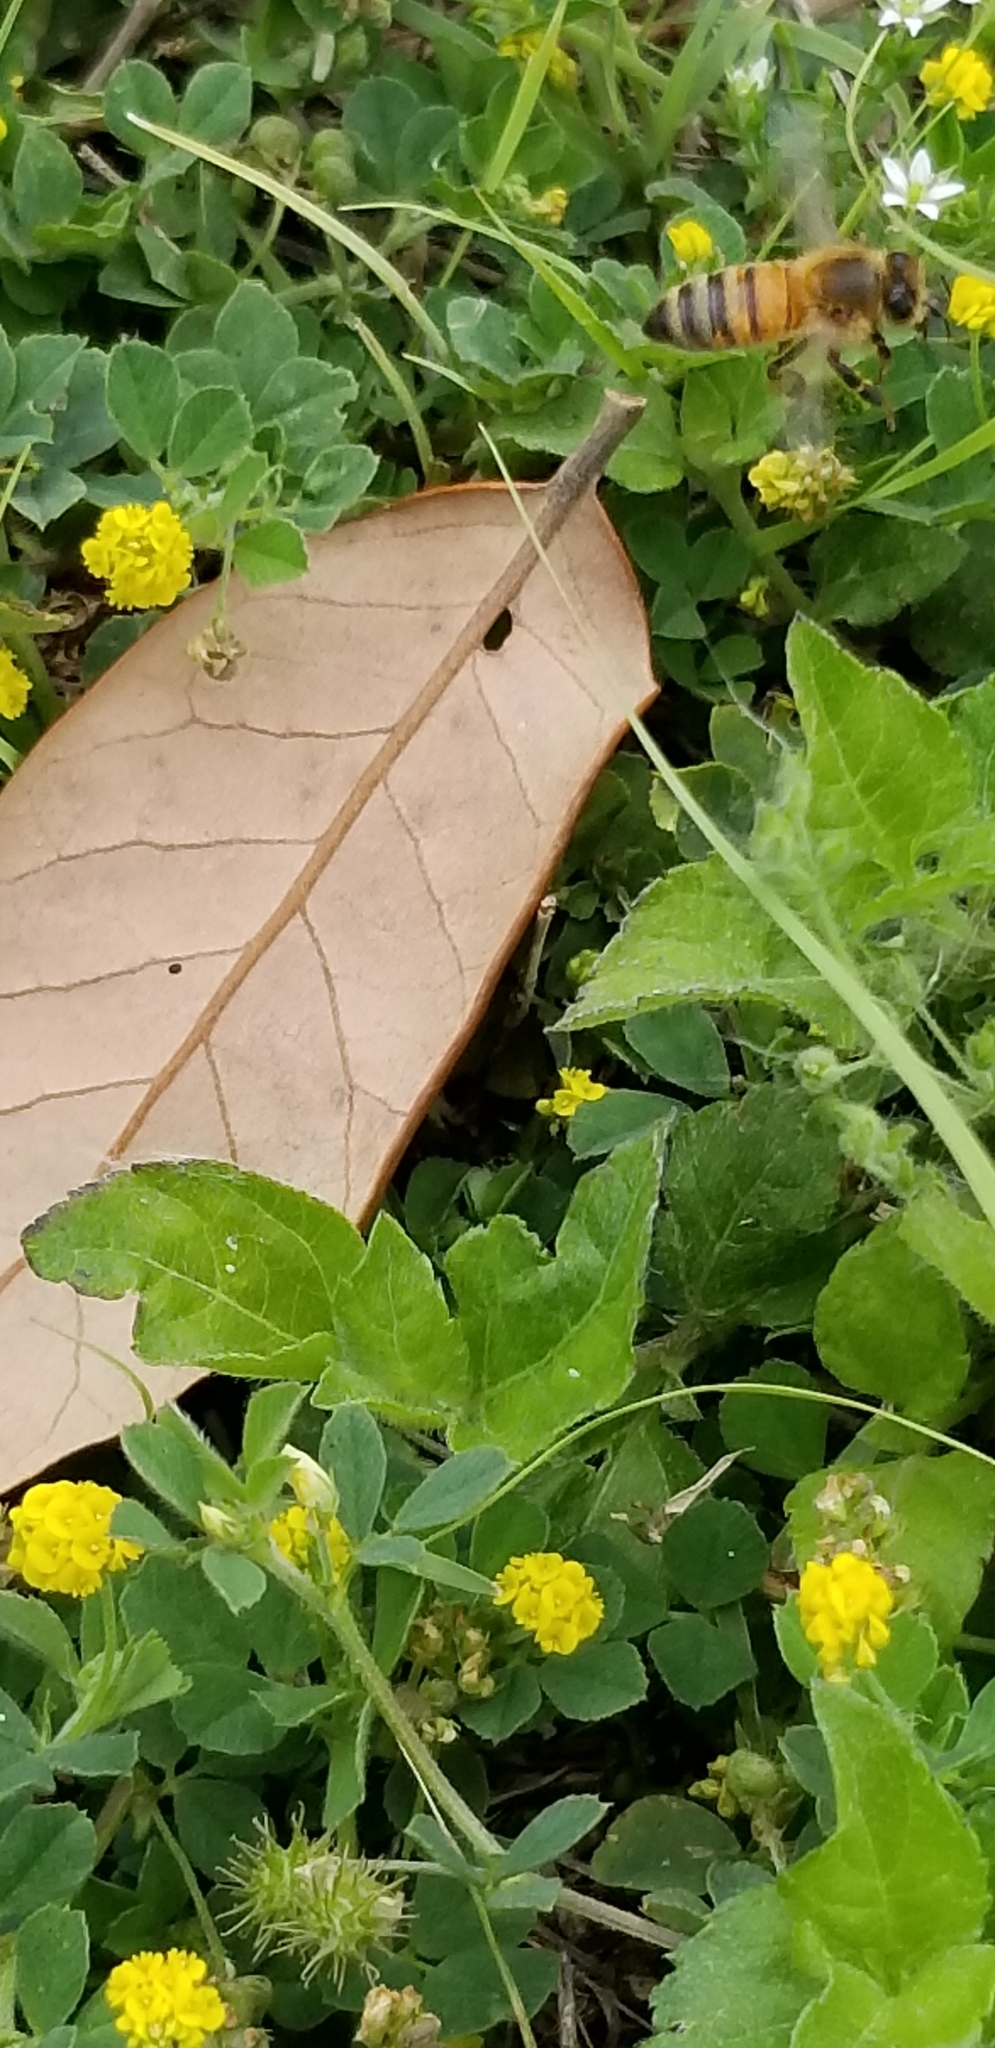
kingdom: Animalia
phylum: Arthropoda
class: Insecta
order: Hymenoptera
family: Apidae
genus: Apis
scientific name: Apis mellifera
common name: Honey bee
